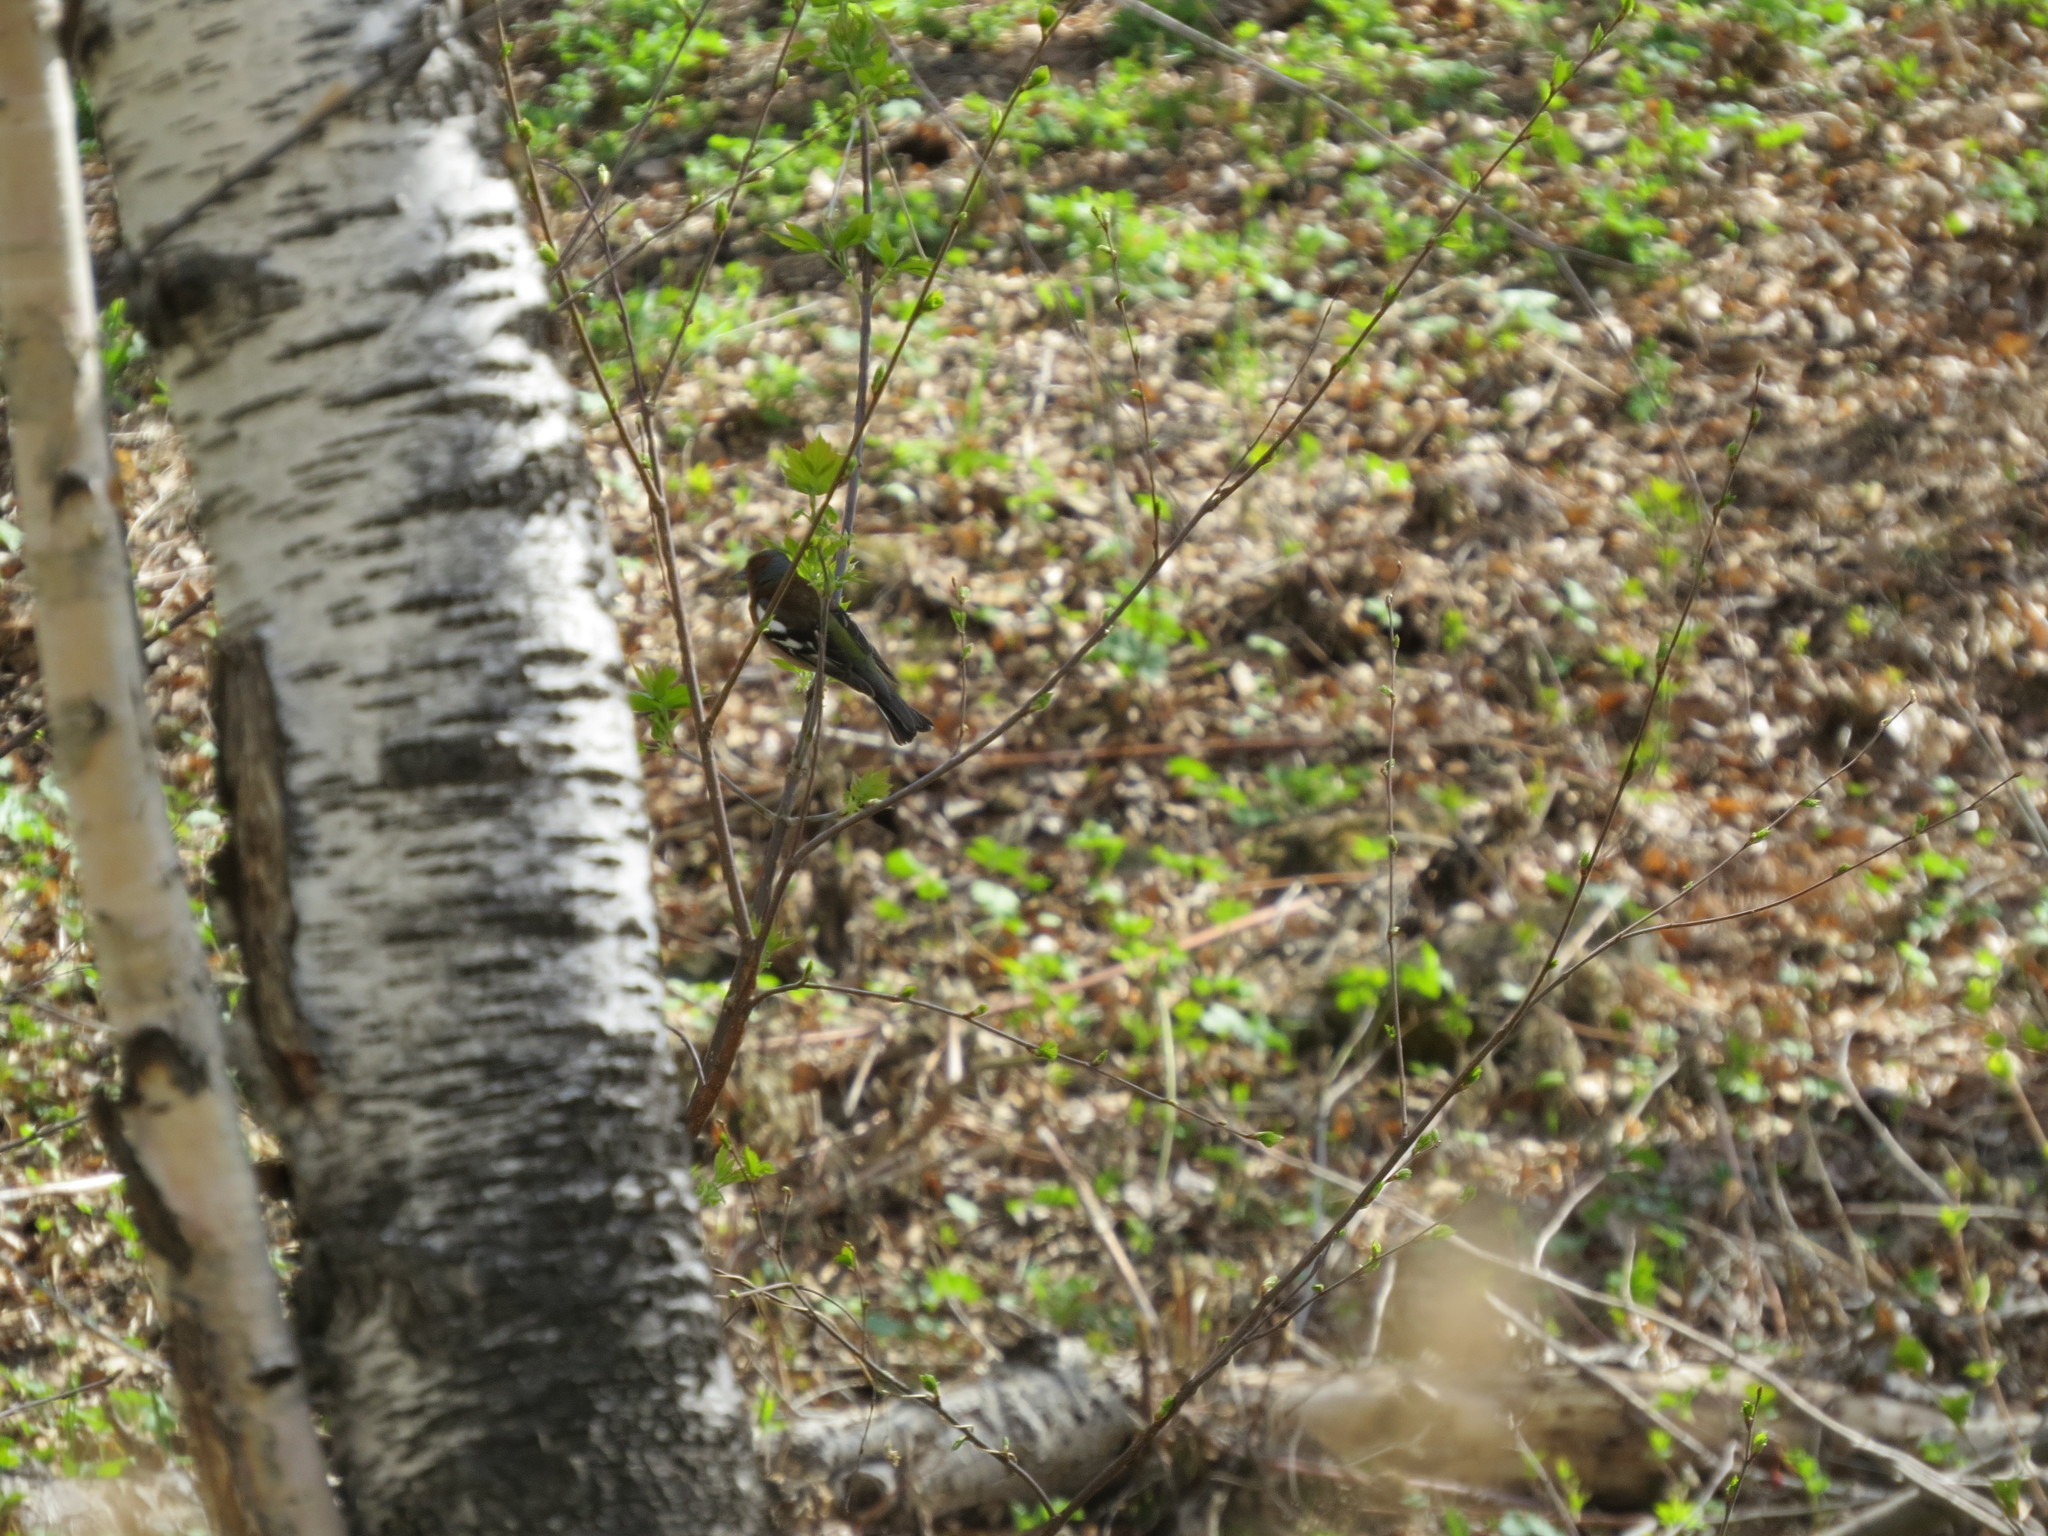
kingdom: Animalia
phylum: Chordata
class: Aves
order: Passeriformes
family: Fringillidae
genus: Fringilla
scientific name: Fringilla coelebs
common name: Common chaffinch
